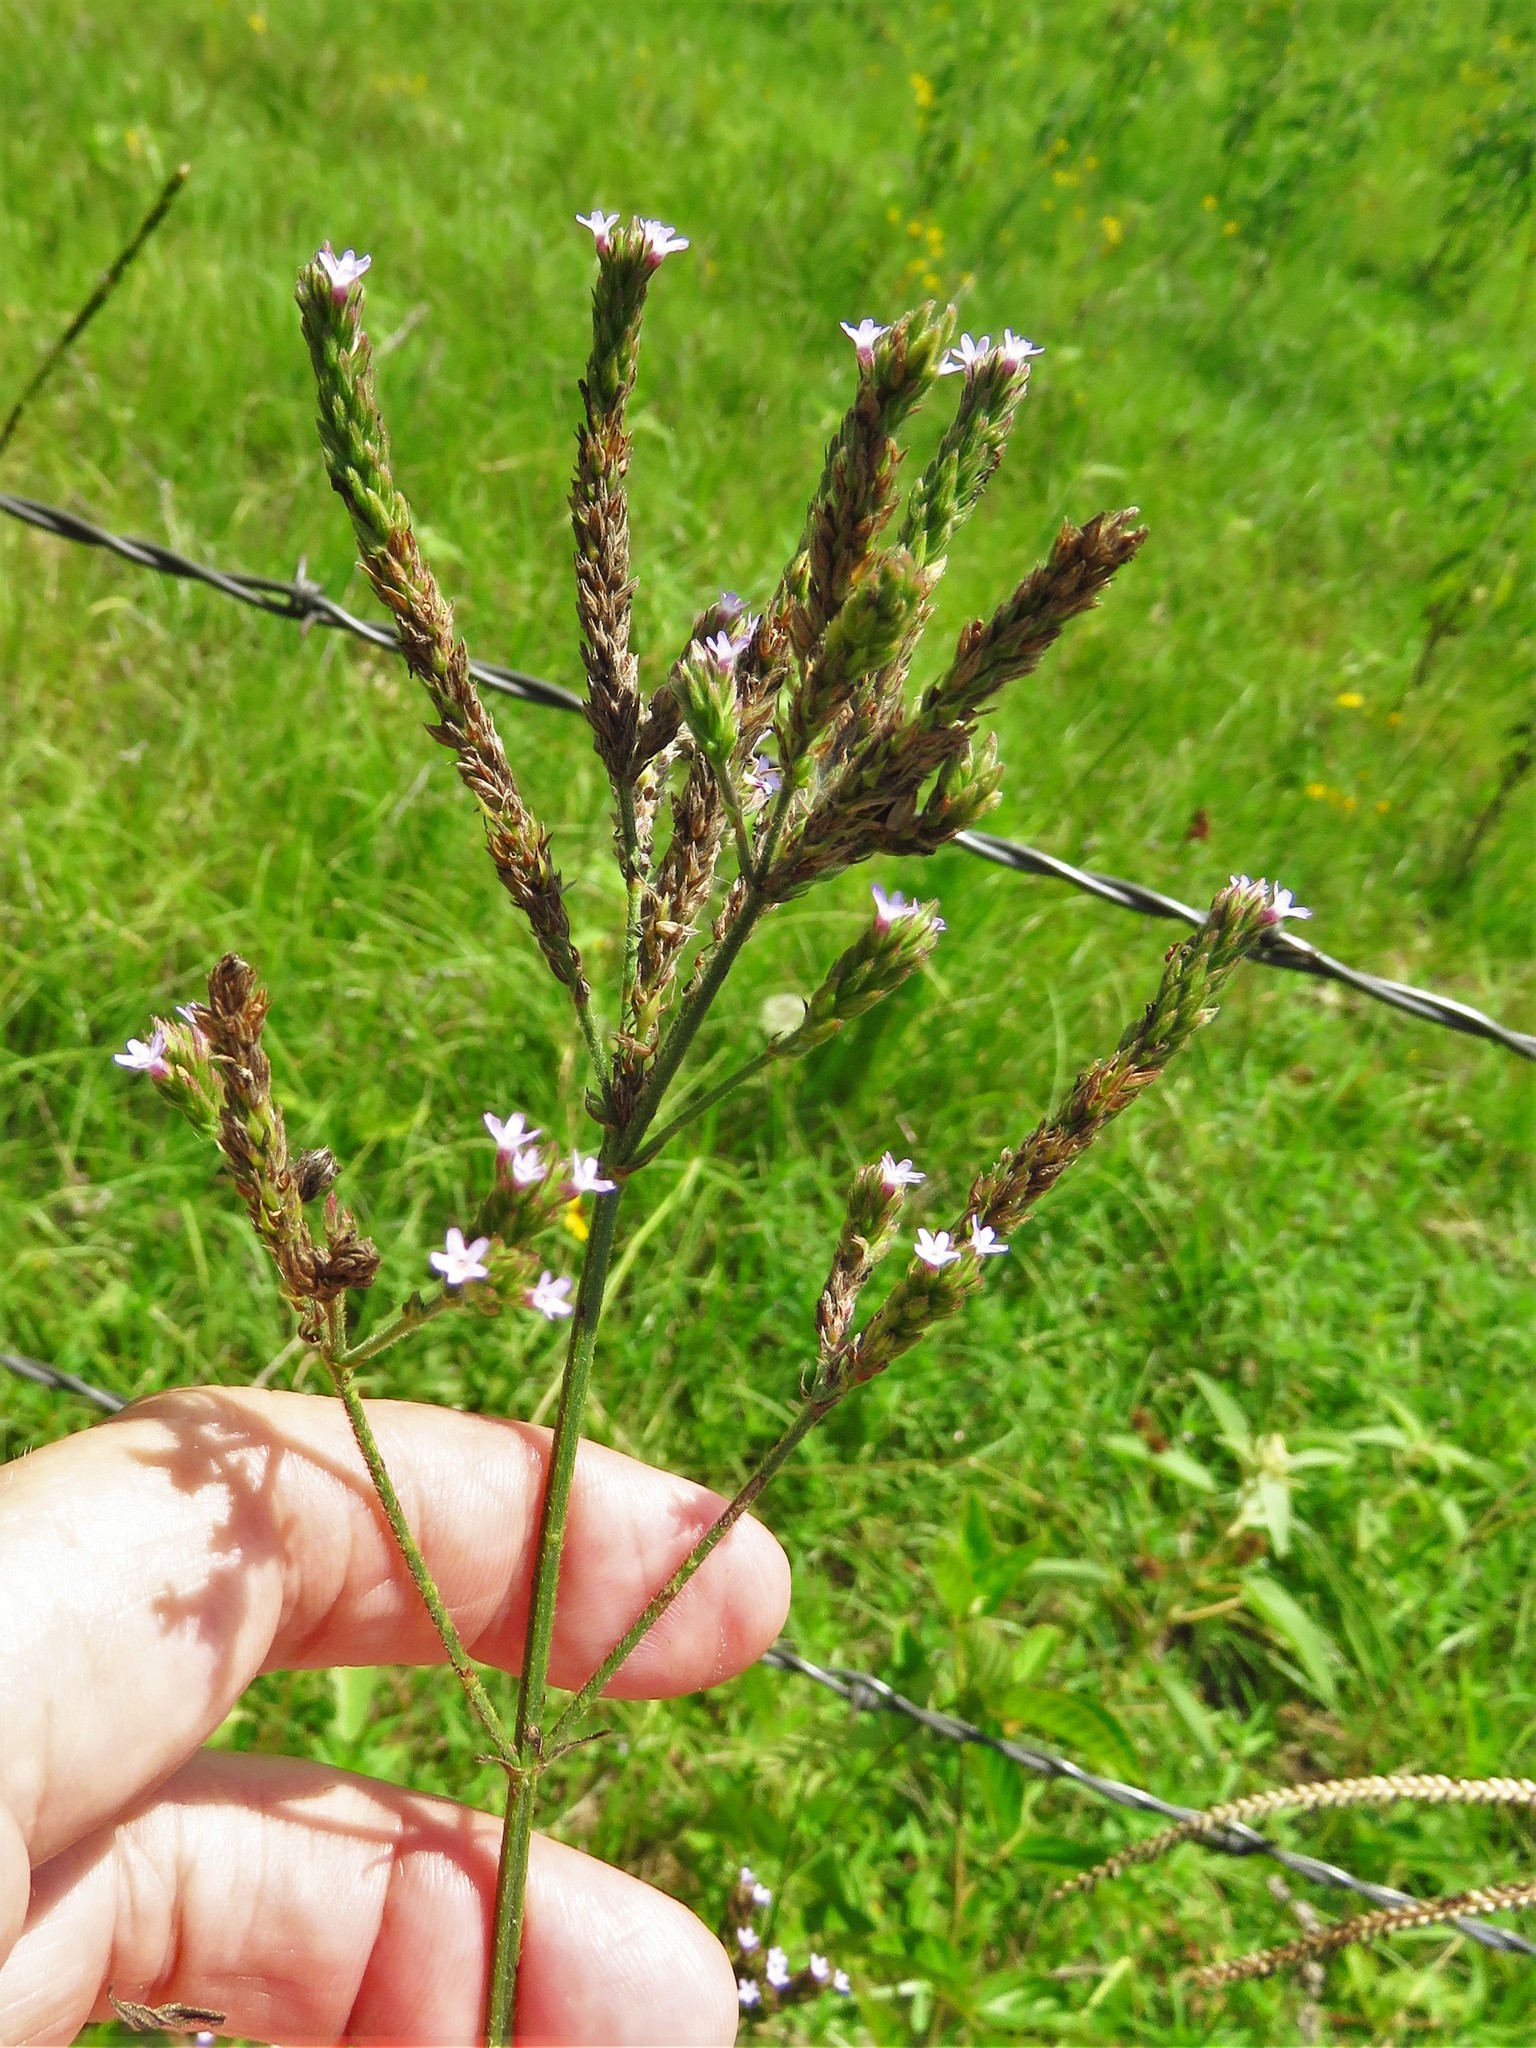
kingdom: Plantae
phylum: Tracheophyta
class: Magnoliopsida
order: Lamiales
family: Verbenaceae
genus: Verbena
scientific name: Verbena brasiliensis
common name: Brazilian vervain
